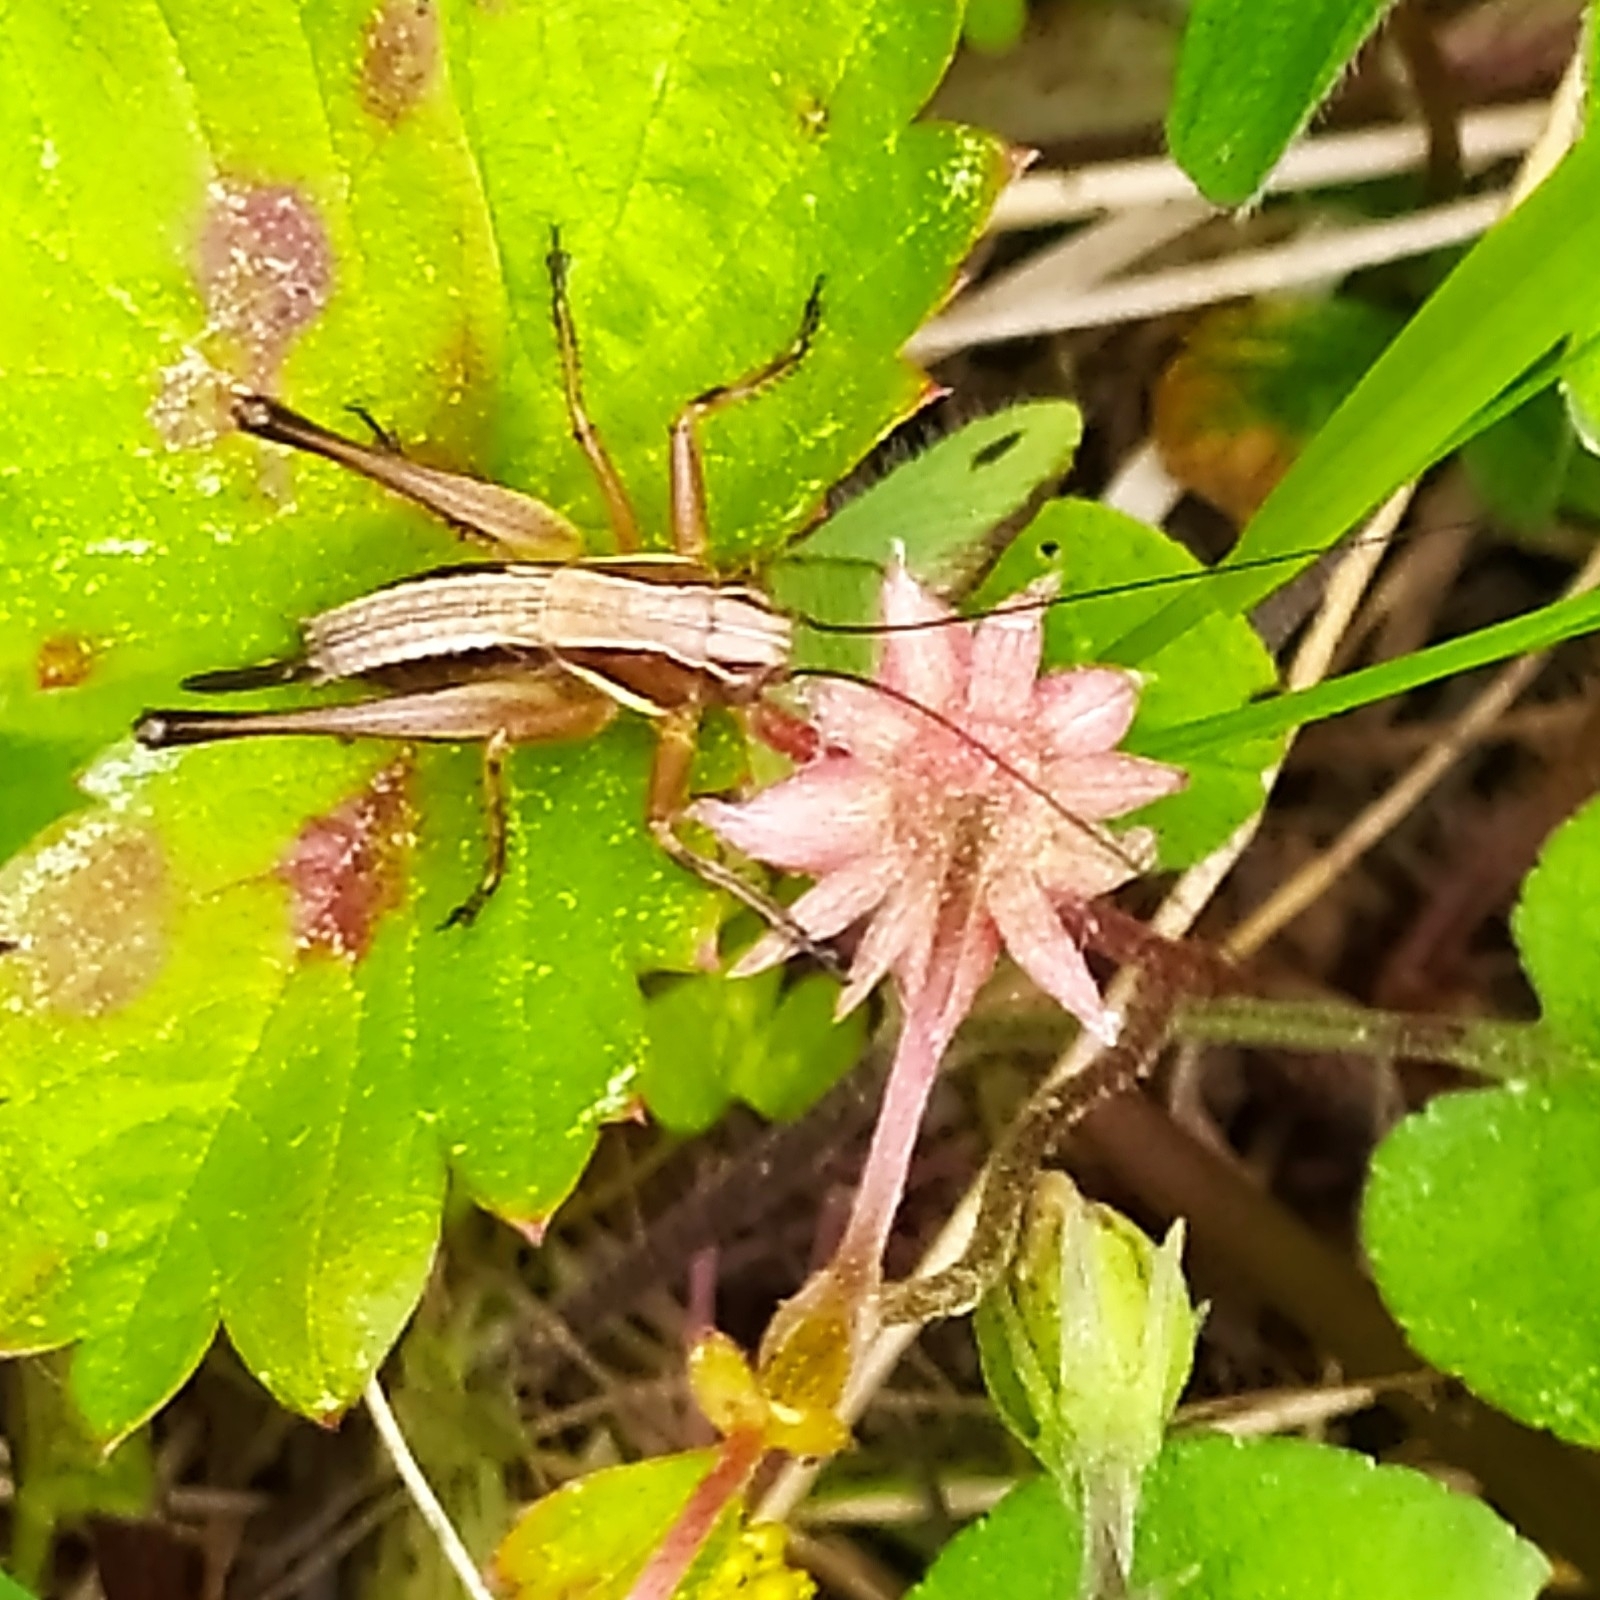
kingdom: Animalia
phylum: Arthropoda
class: Insecta
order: Orthoptera
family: Tettigoniidae
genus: Metrioptera
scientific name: Metrioptera brachyptera
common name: Bog bush-cricket
